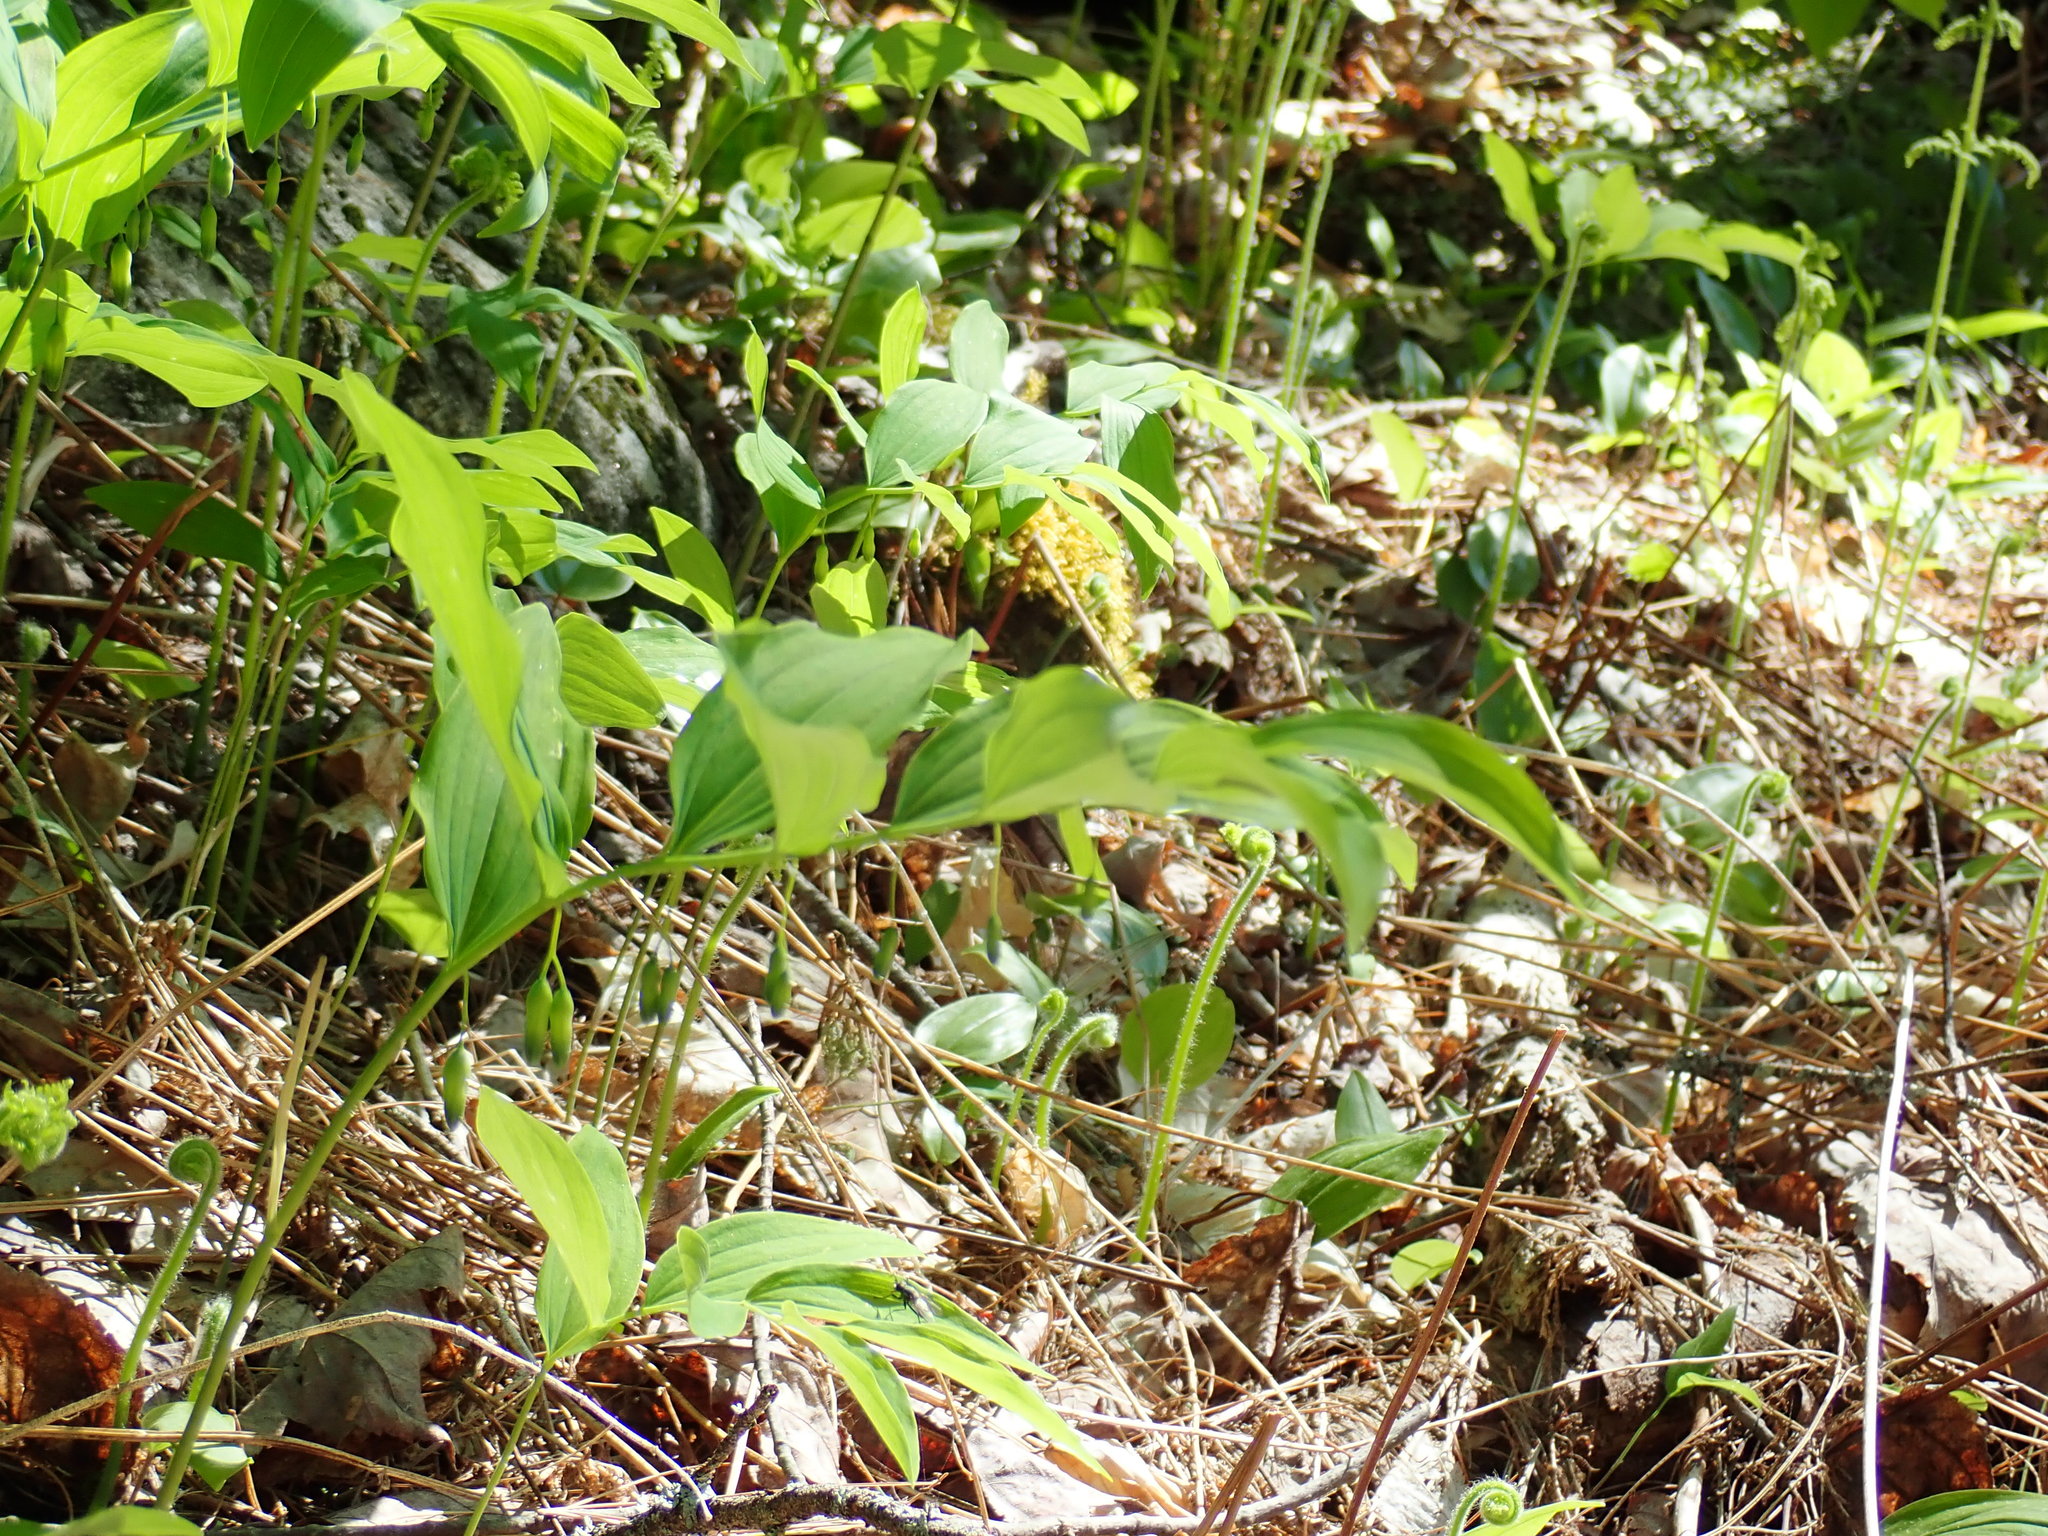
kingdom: Plantae
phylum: Tracheophyta
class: Liliopsida
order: Asparagales
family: Asparagaceae
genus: Polygonatum
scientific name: Polygonatum pubescens
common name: Downy solomon's seal
